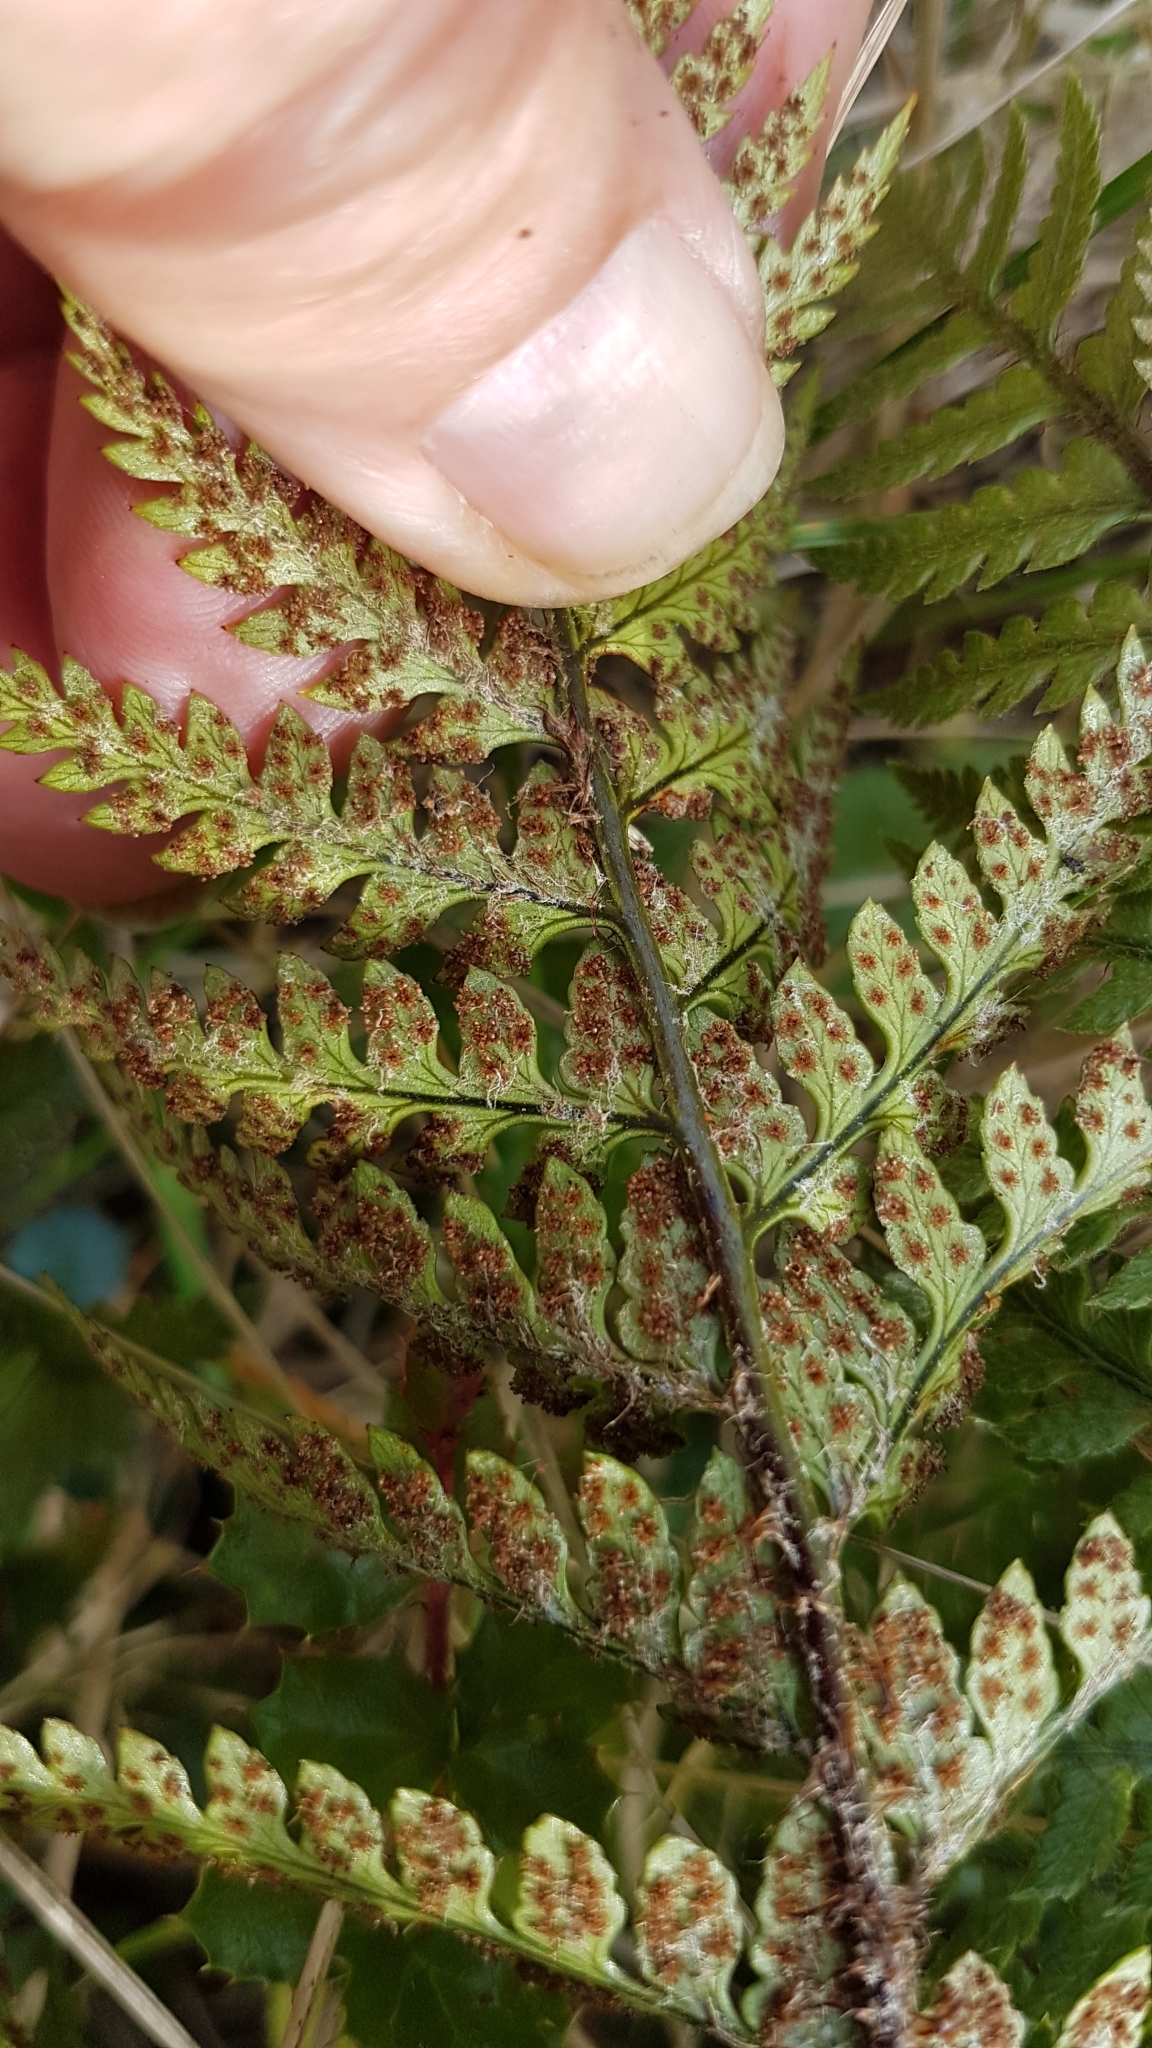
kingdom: Plantae
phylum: Tracheophyta
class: Polypodiopsida
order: Polypodiales
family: Dryopteridaceae
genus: Polystichum
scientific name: Polystichum neozelandicum
